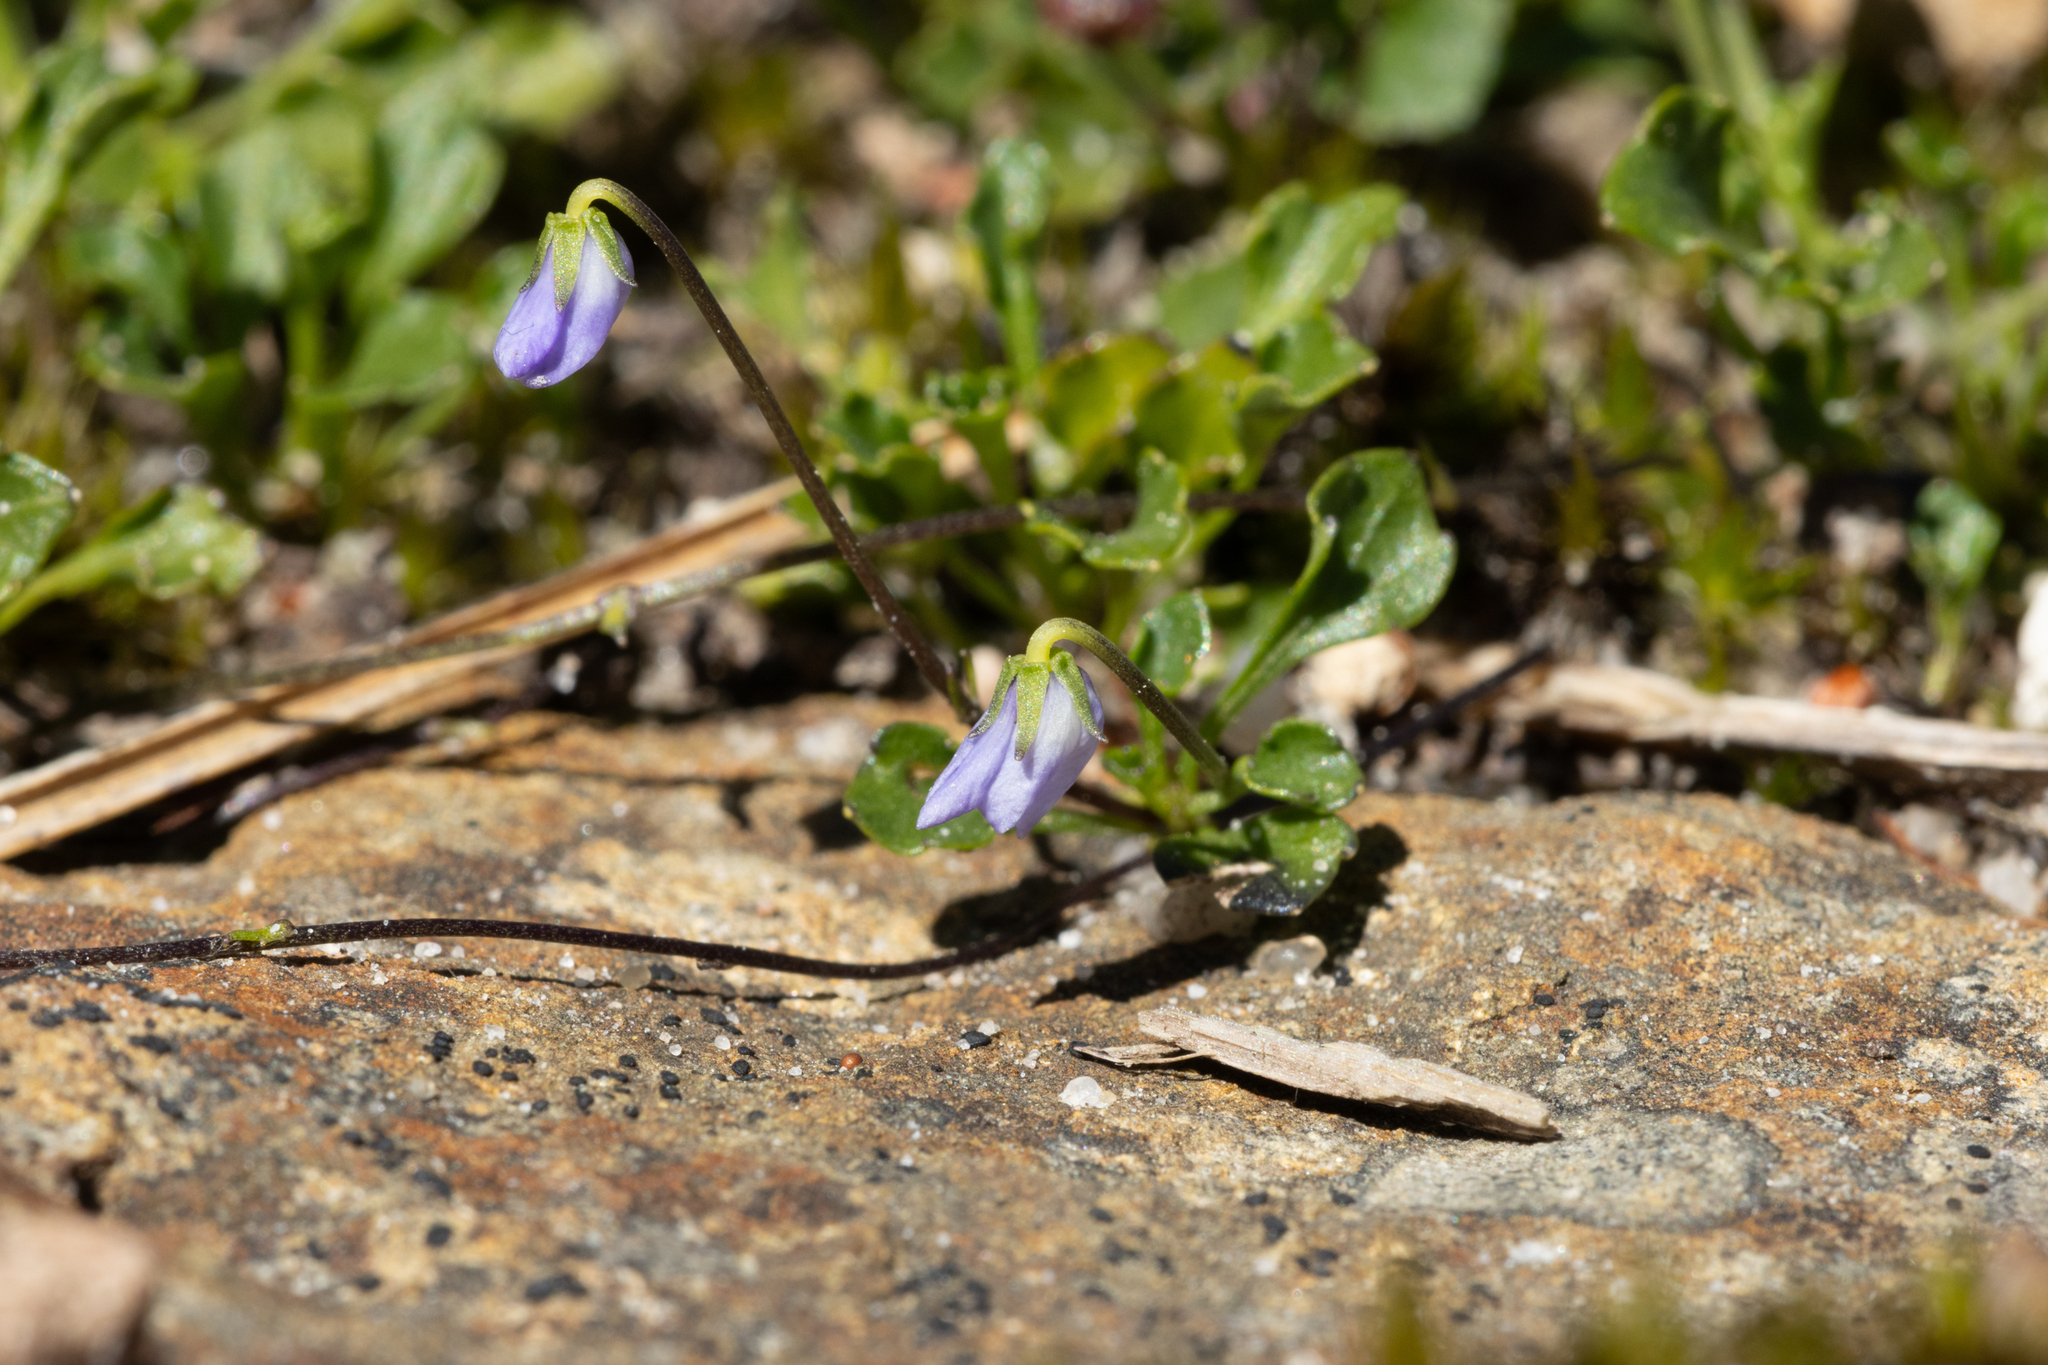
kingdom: Plantae
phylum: Tracheophyta
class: Magnoliopsida
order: Malpighiales
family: Violaceae
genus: Viola
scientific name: Viola sieberiana
